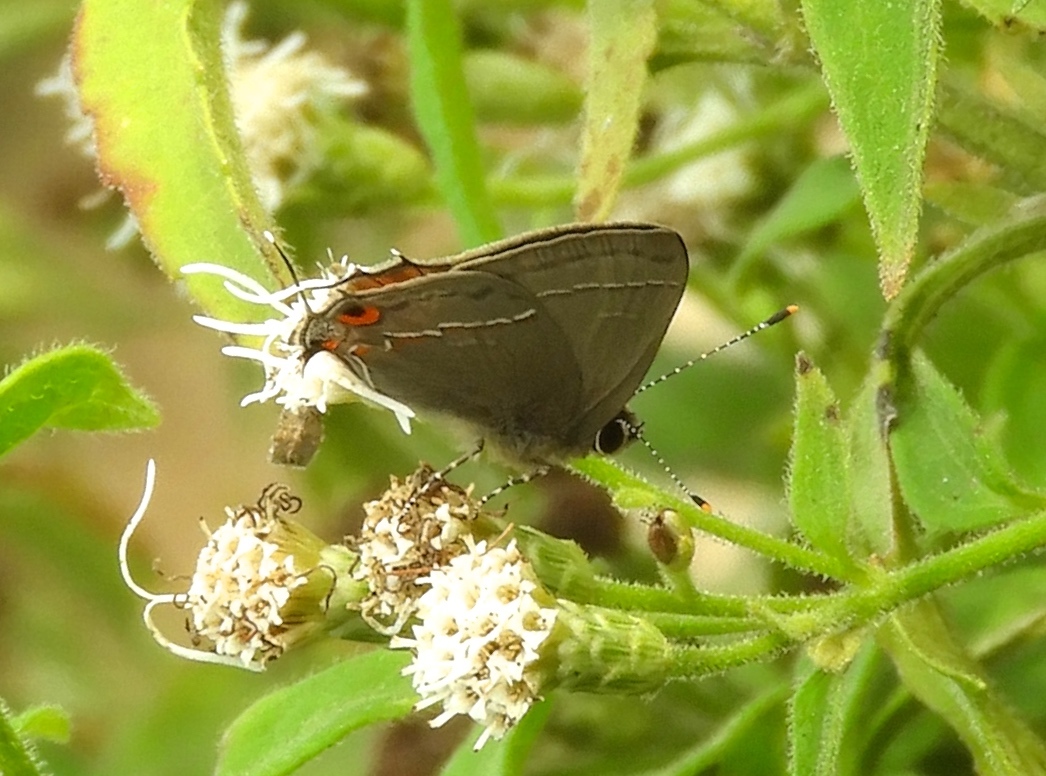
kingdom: Animalia
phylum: Arthropoda
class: Insecta
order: Lepidoptera
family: Lycaenidae
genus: Electrostrymon
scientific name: Electrostrymon endymion
